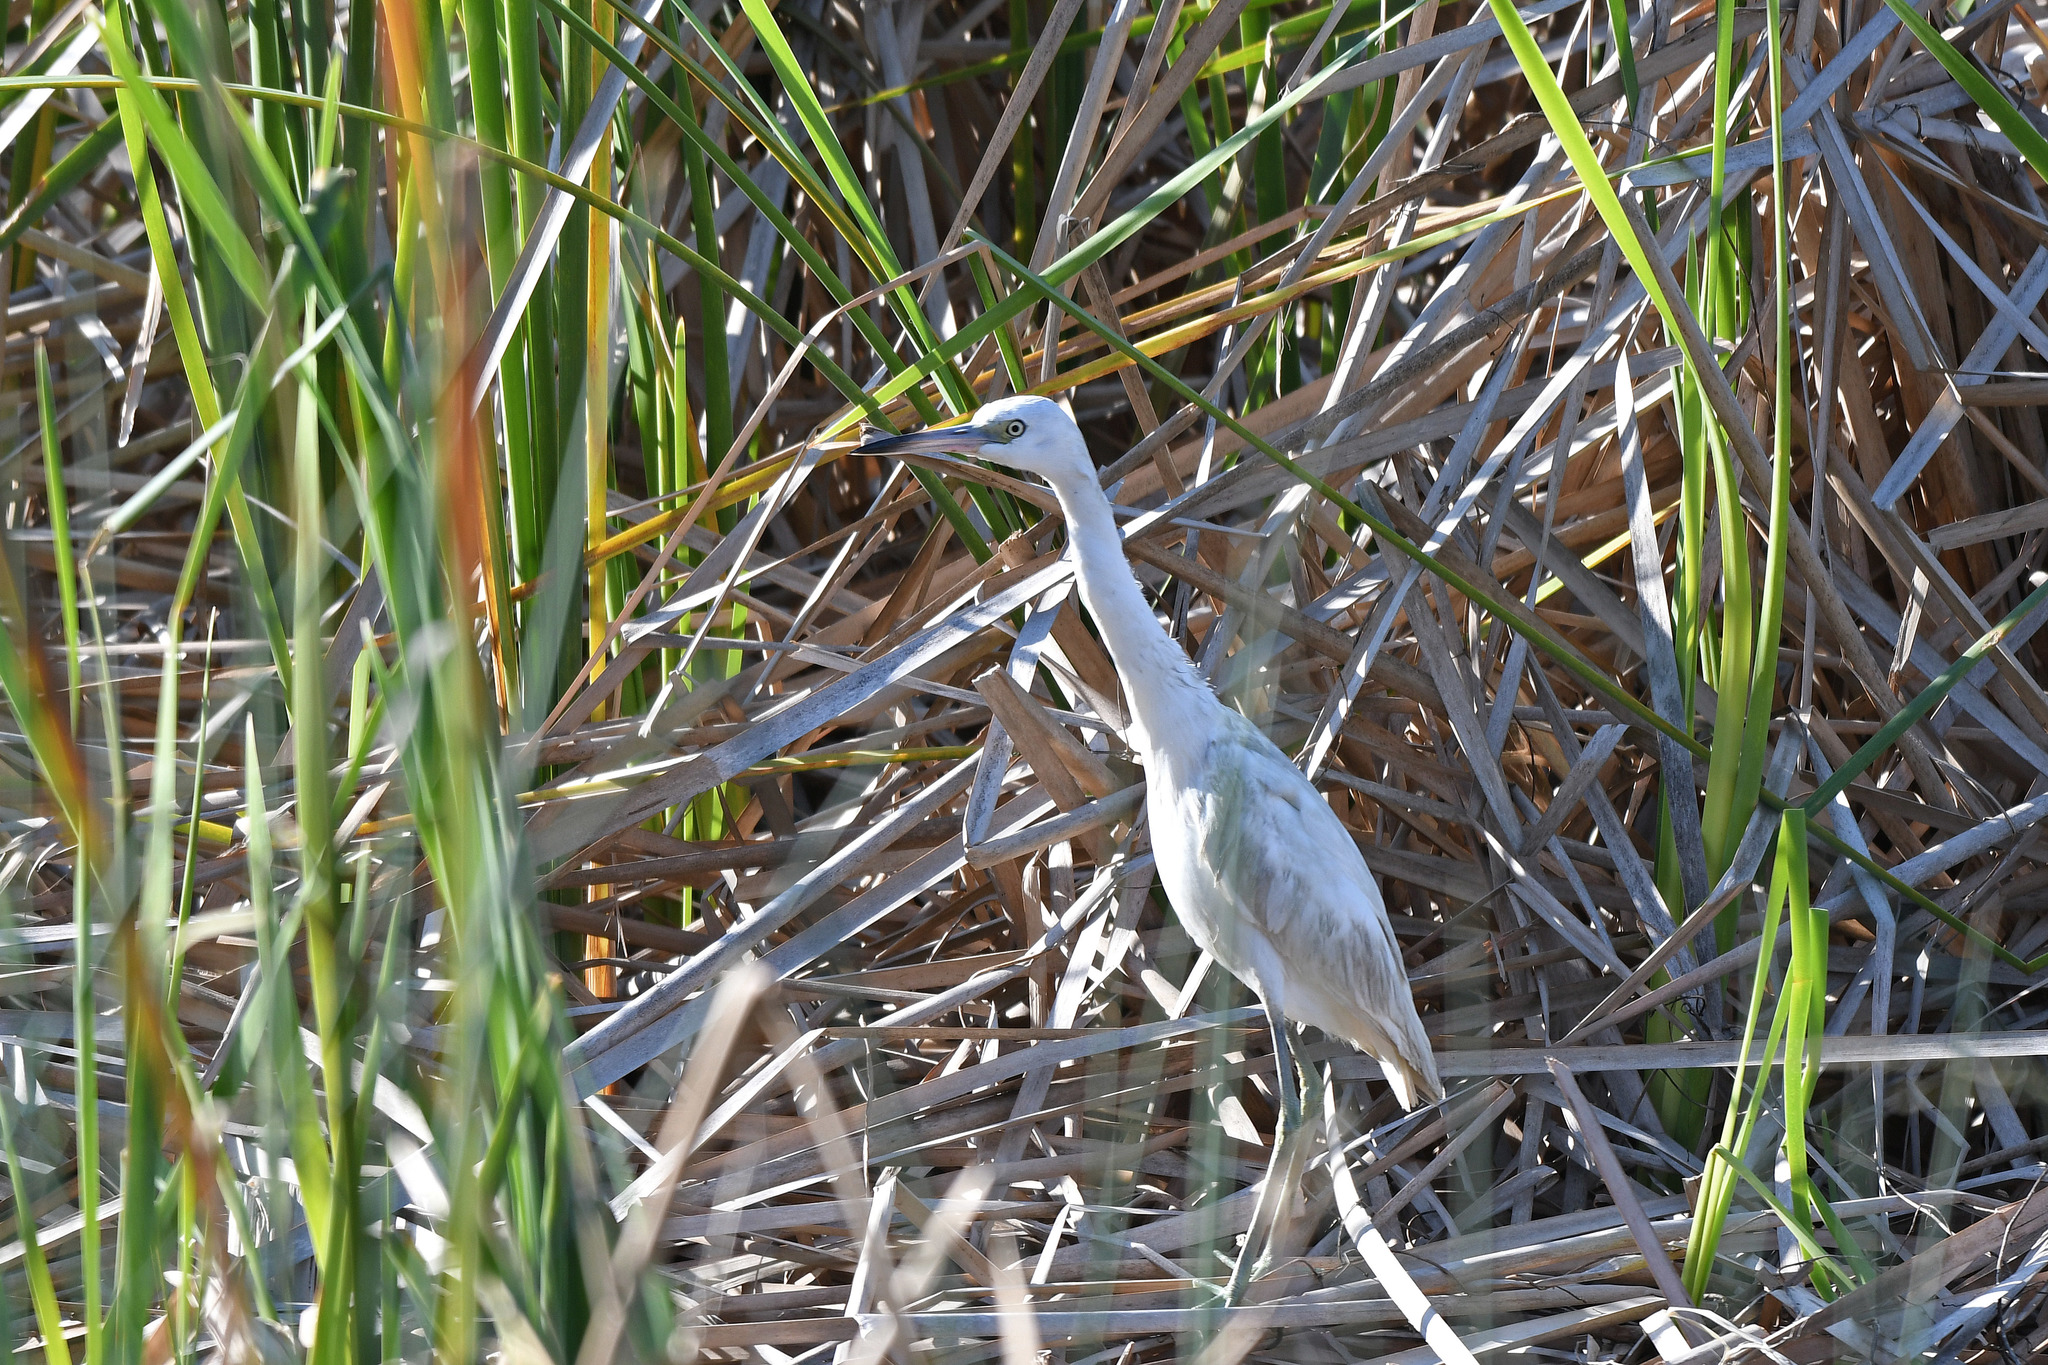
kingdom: Animalia
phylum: Chordata
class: Aves
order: Pelecaniformes
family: Ardeidae
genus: Egretta
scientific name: Egretta caerulea
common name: Little blue heron
